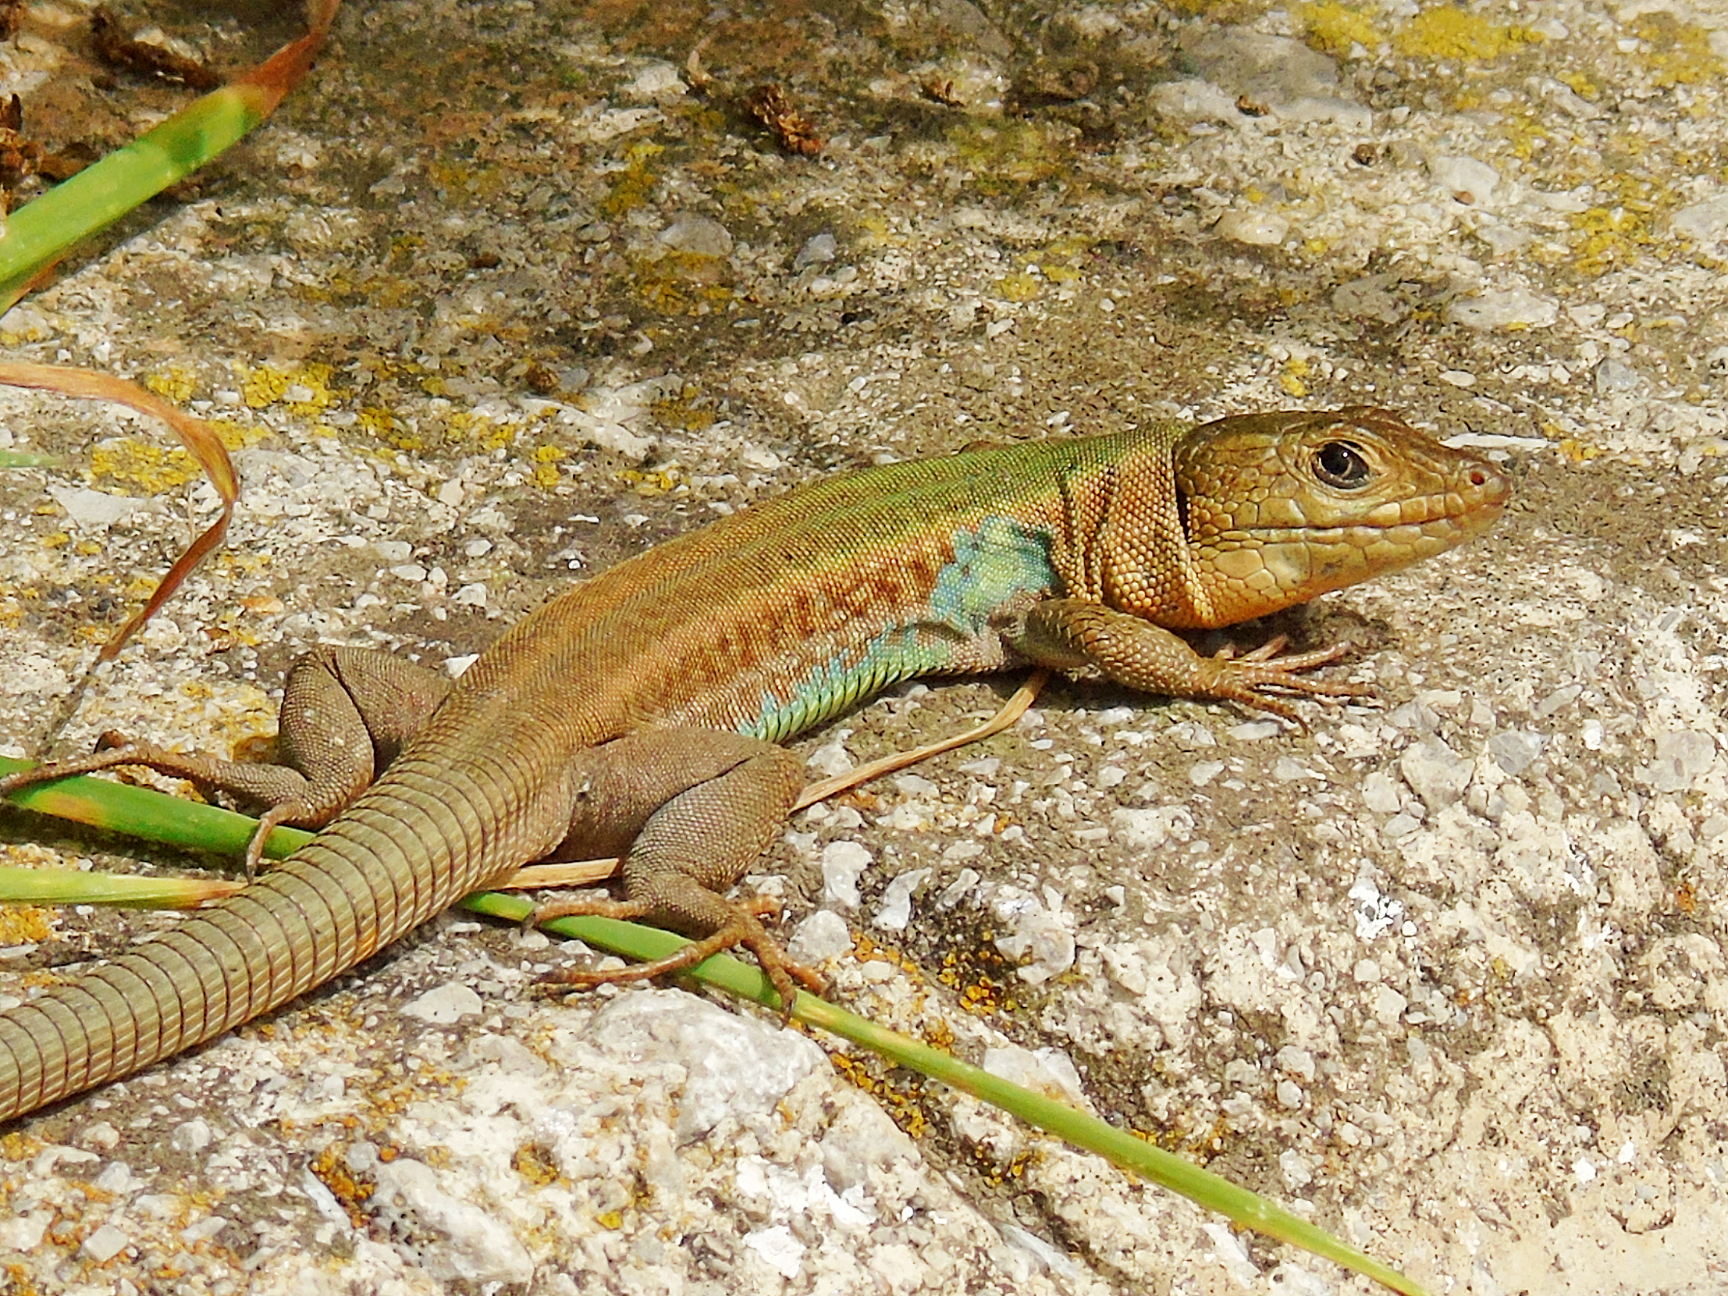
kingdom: Animalia
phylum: Chordata
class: Squamata
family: Lacertidae
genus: Podarcis
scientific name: Podarcis peloponnesiacus
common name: Peloponnese wall lizard
